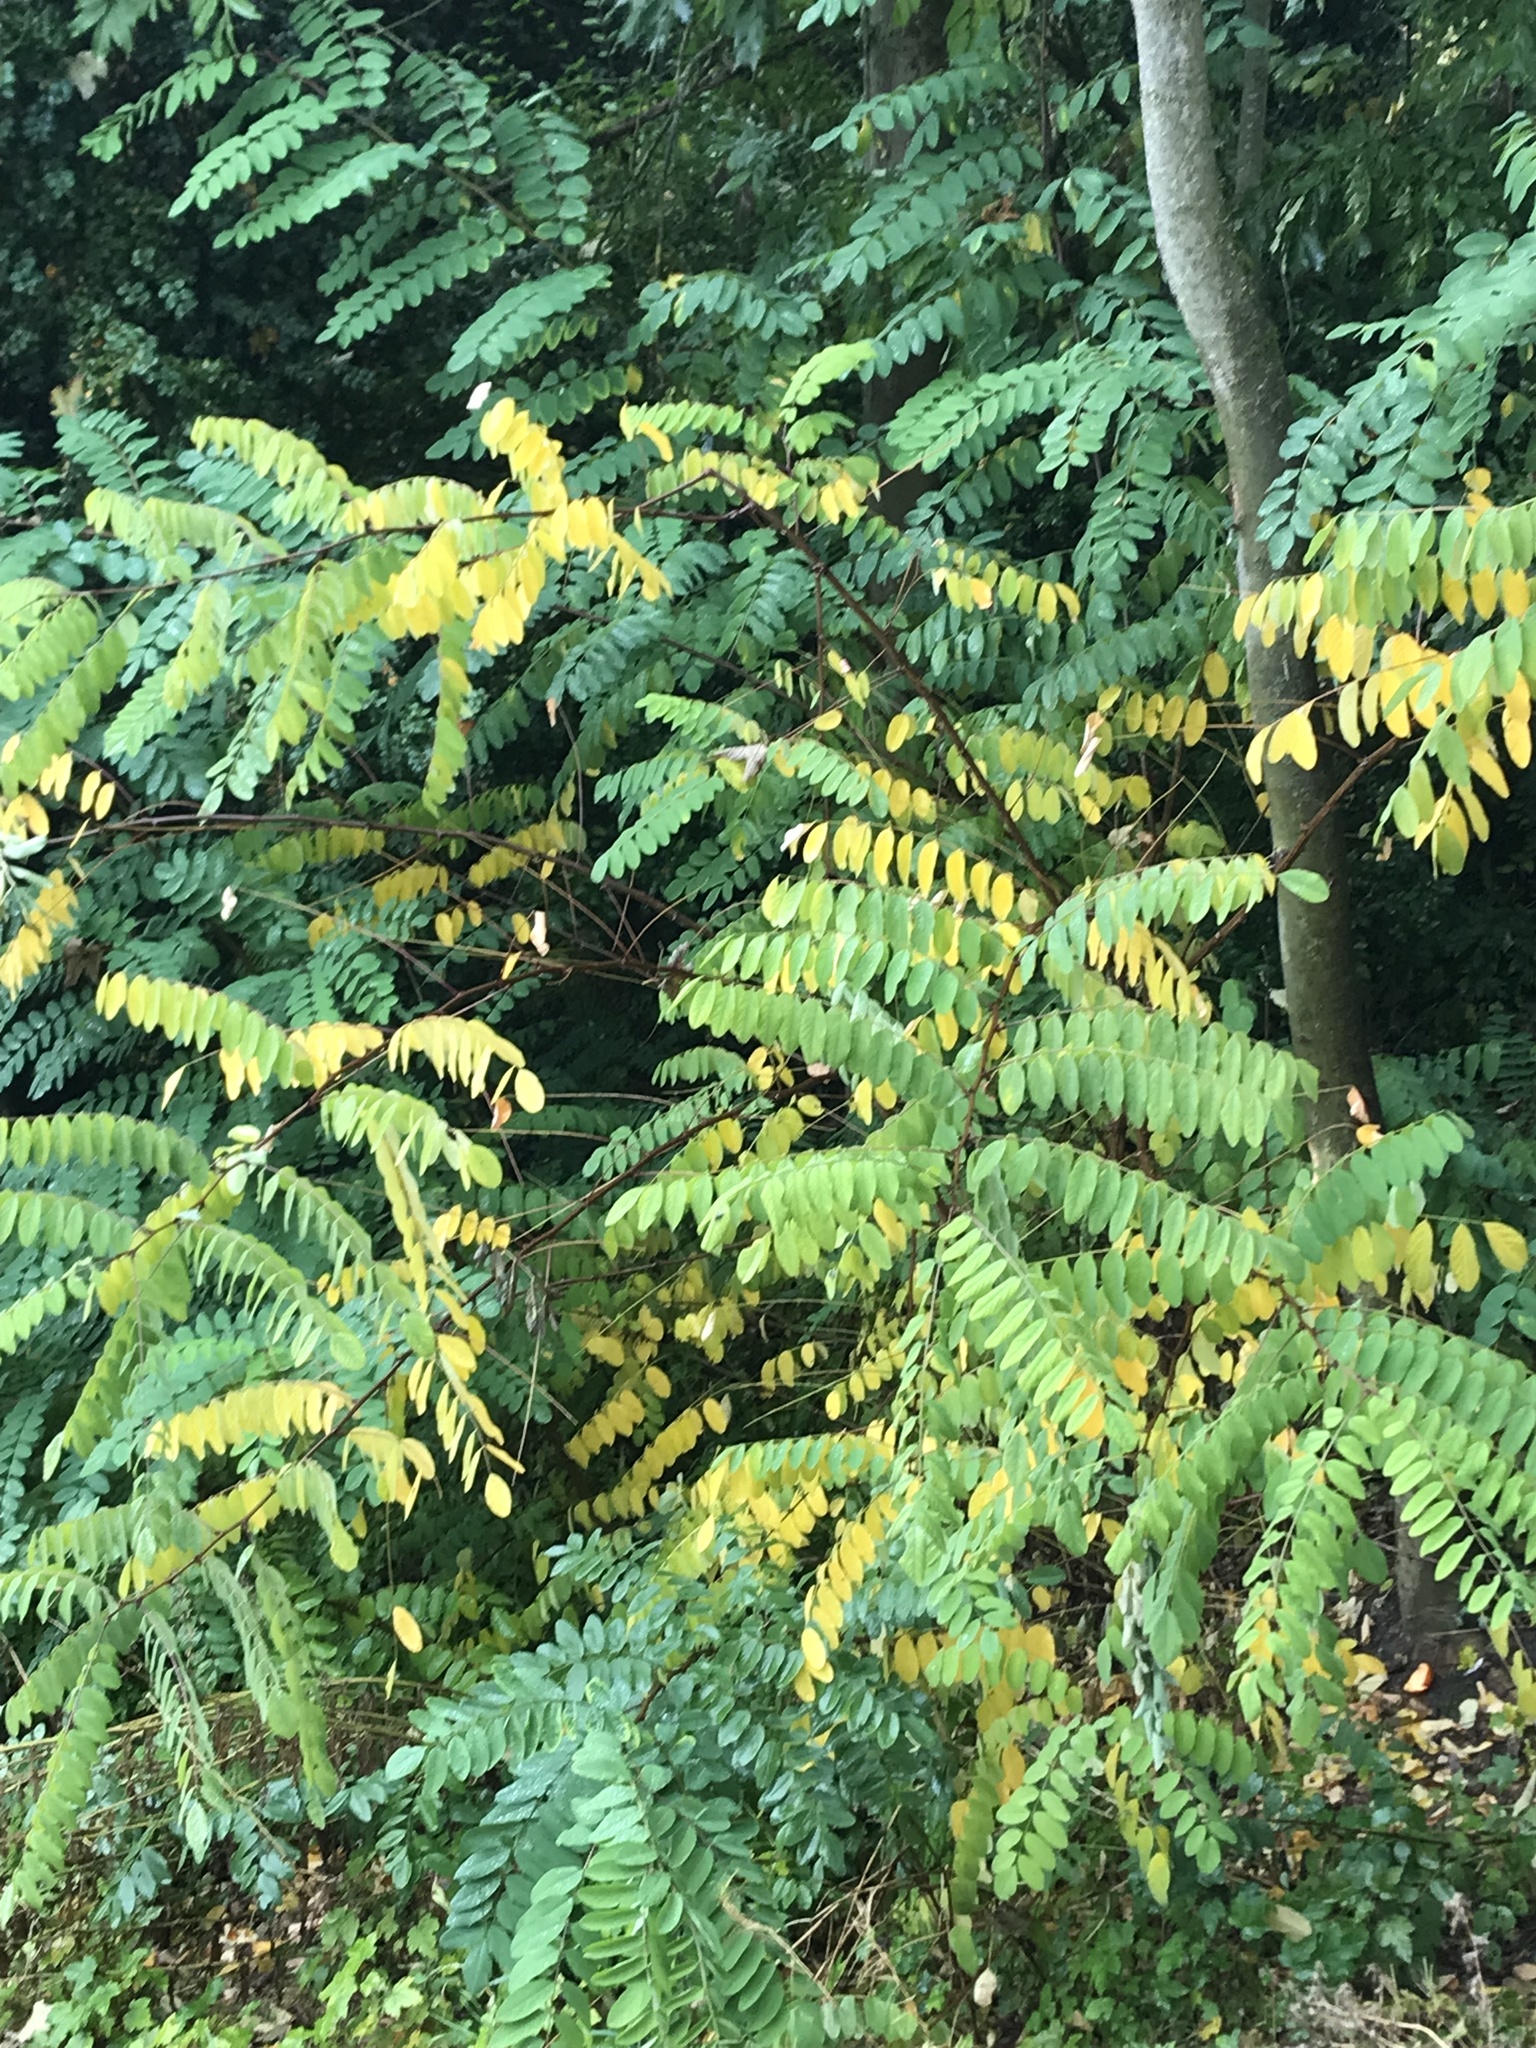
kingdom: Plantae
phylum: Tracheophyta
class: Magnoliopsida
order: Fabales
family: Fabaceae
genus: Robinia
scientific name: Robinia pseudoacacia
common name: Black locust
